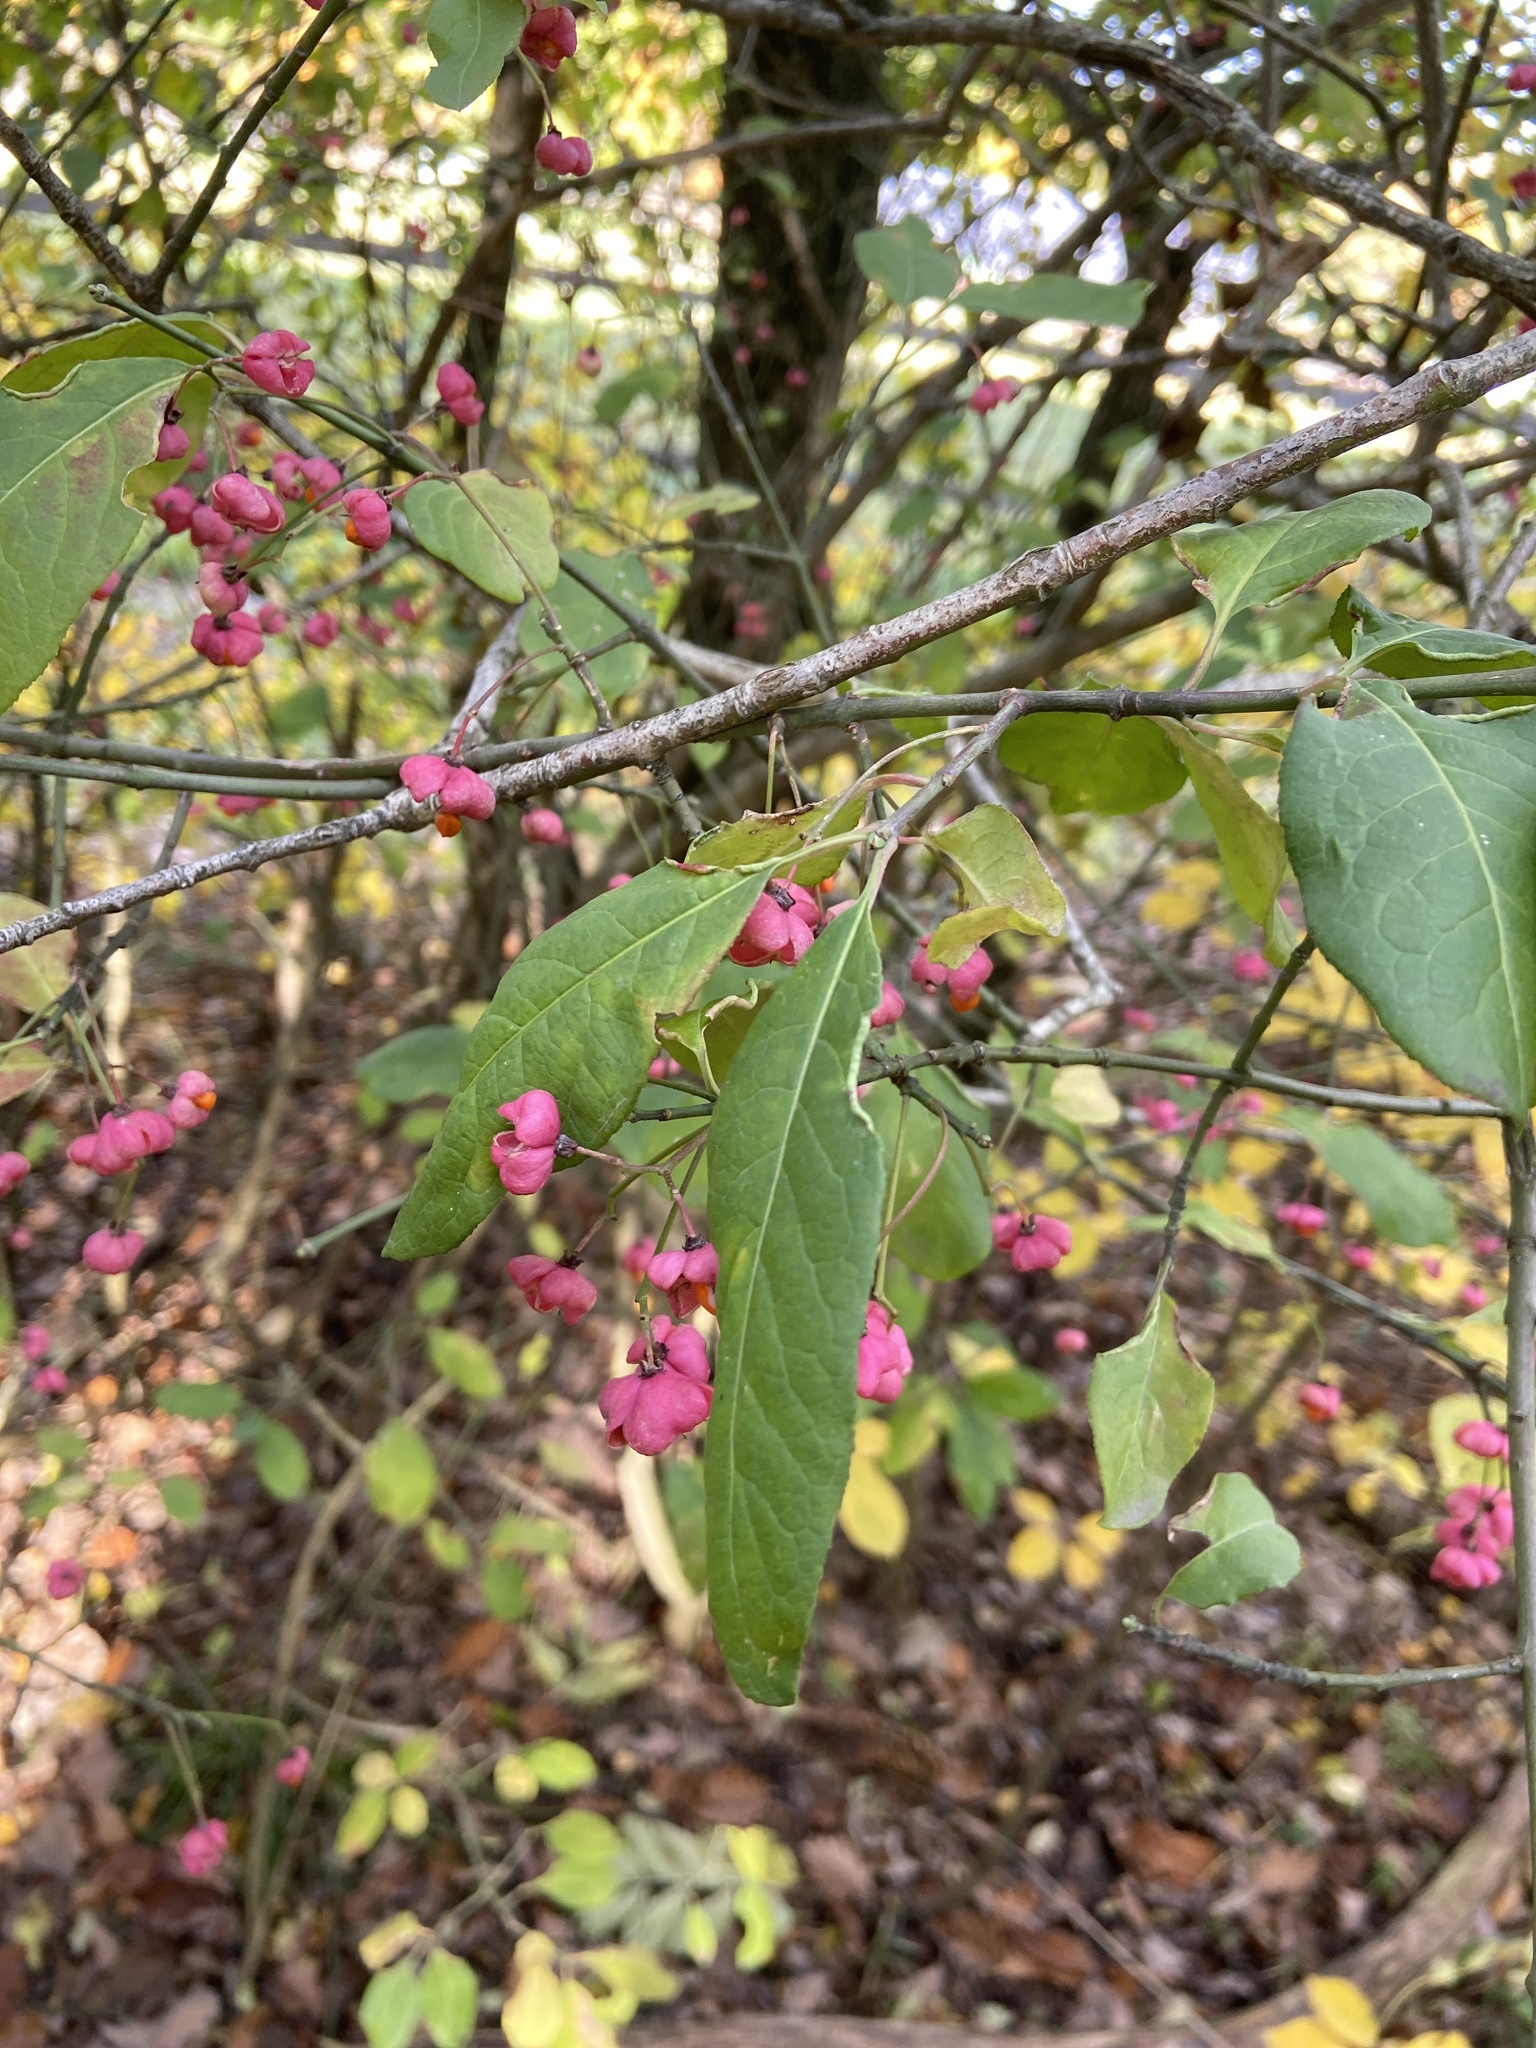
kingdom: Plantae
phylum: Tracheophyta
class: Magnoliopsida
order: Celastrales
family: Celastraceae
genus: Euonymus
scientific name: Euonymus europaeus
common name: Spindle
